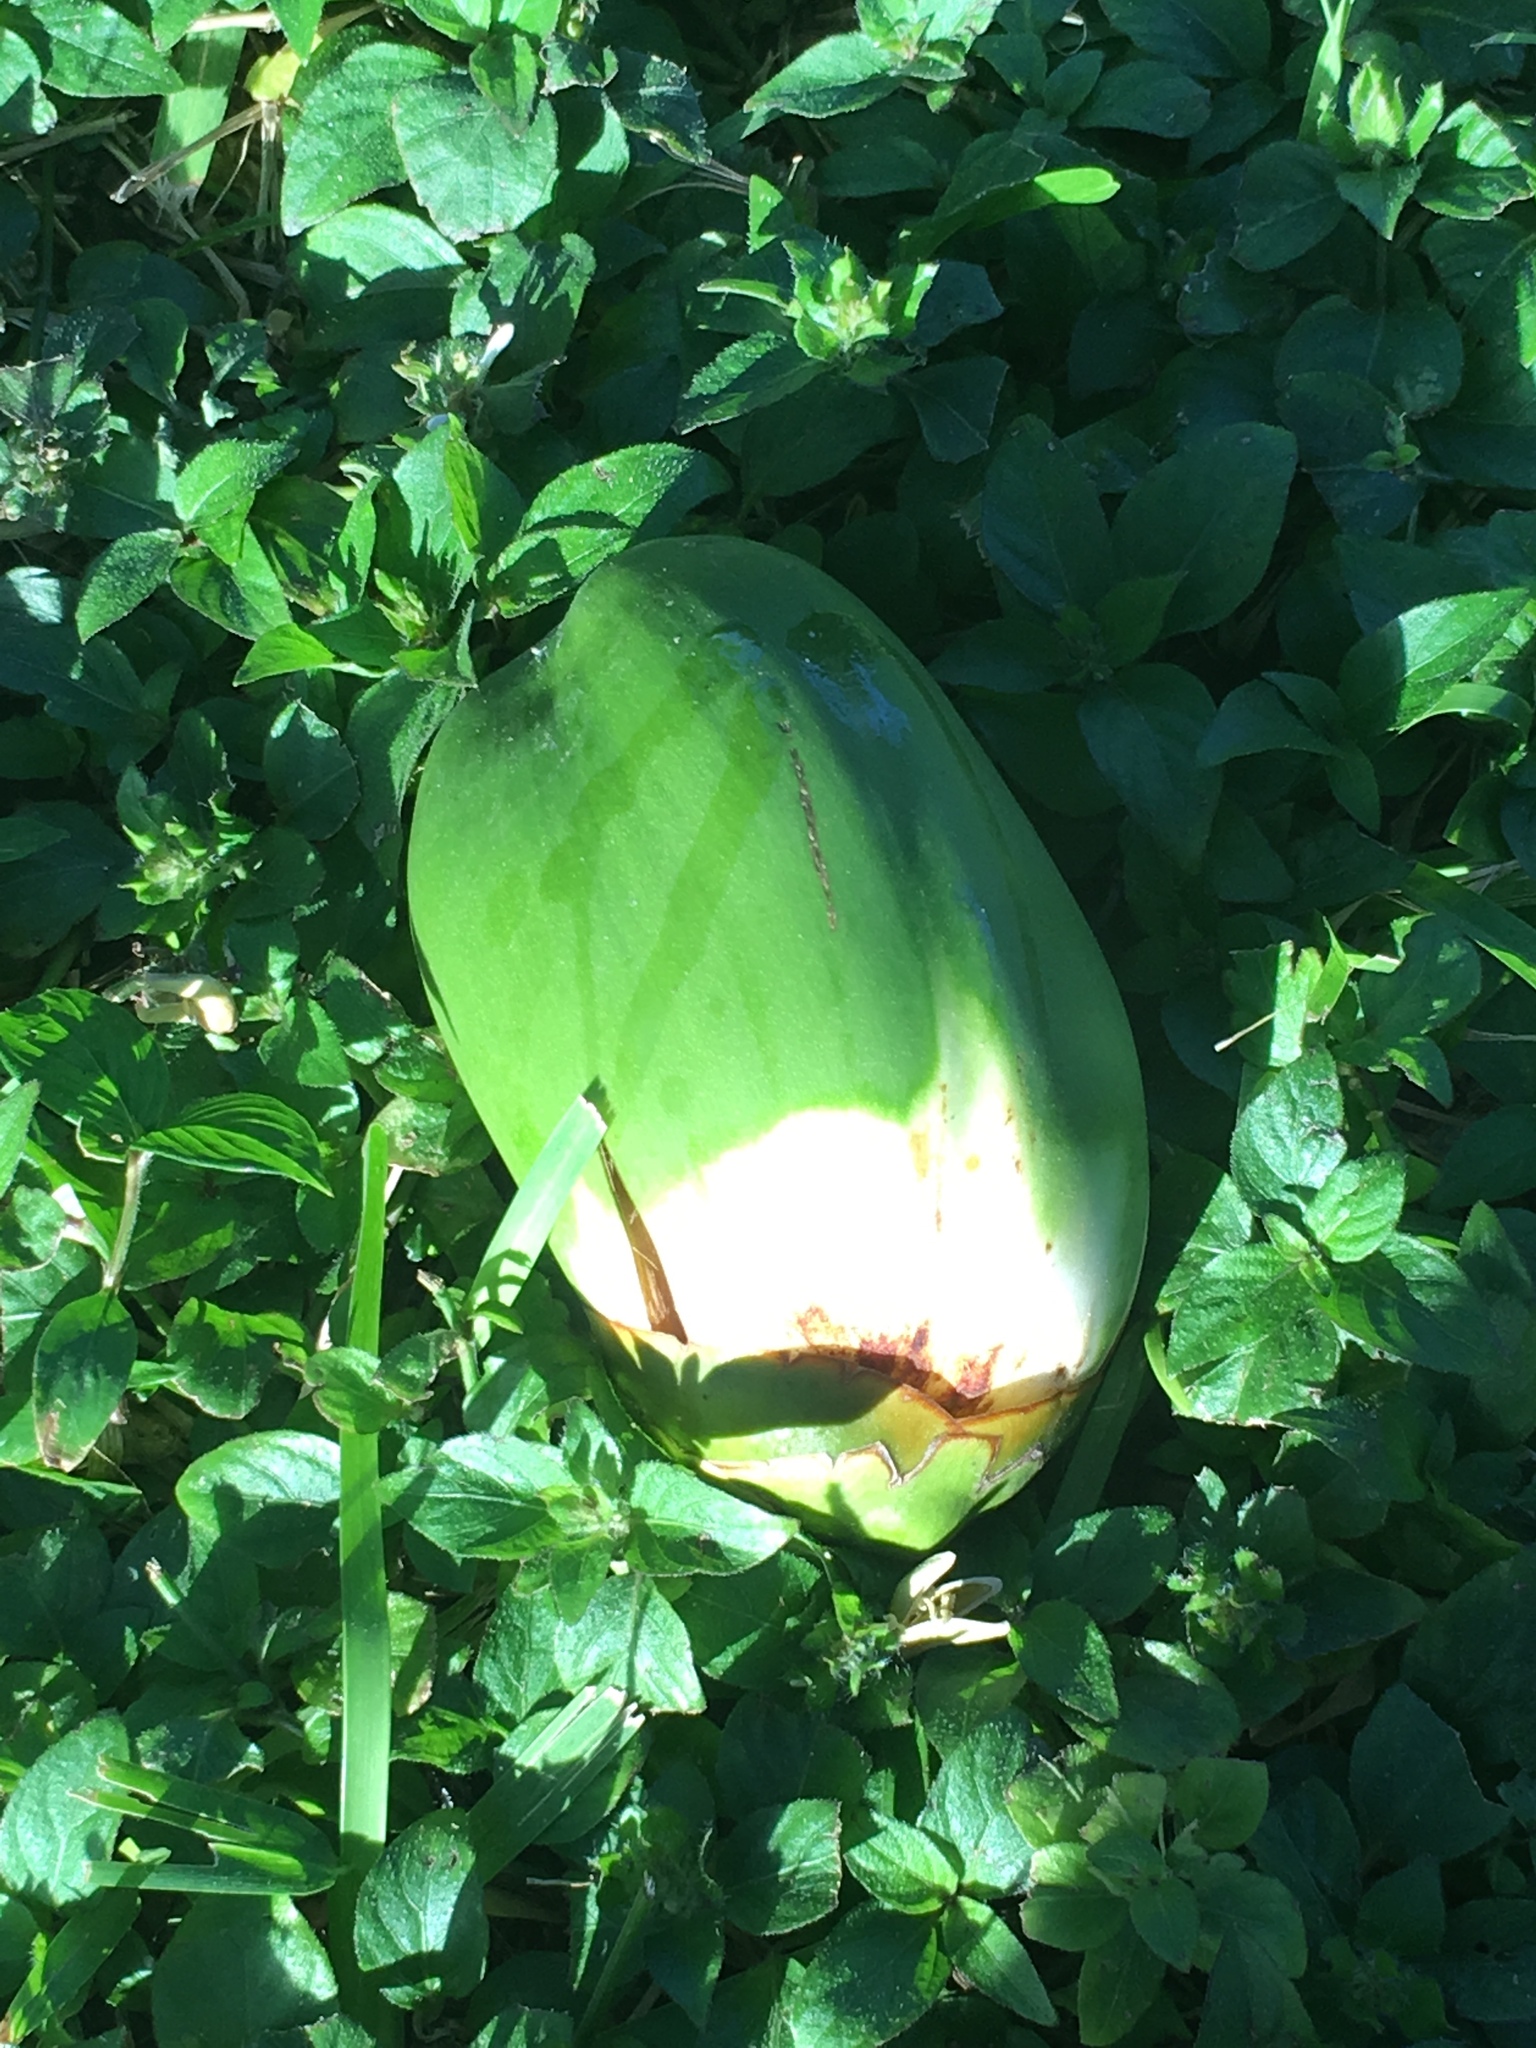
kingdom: Plantae
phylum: Tracheophyta
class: Liliopsida
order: Arecales
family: Arecaceae
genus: Cocos
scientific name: Cocos nucifera
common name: Coconut palm
